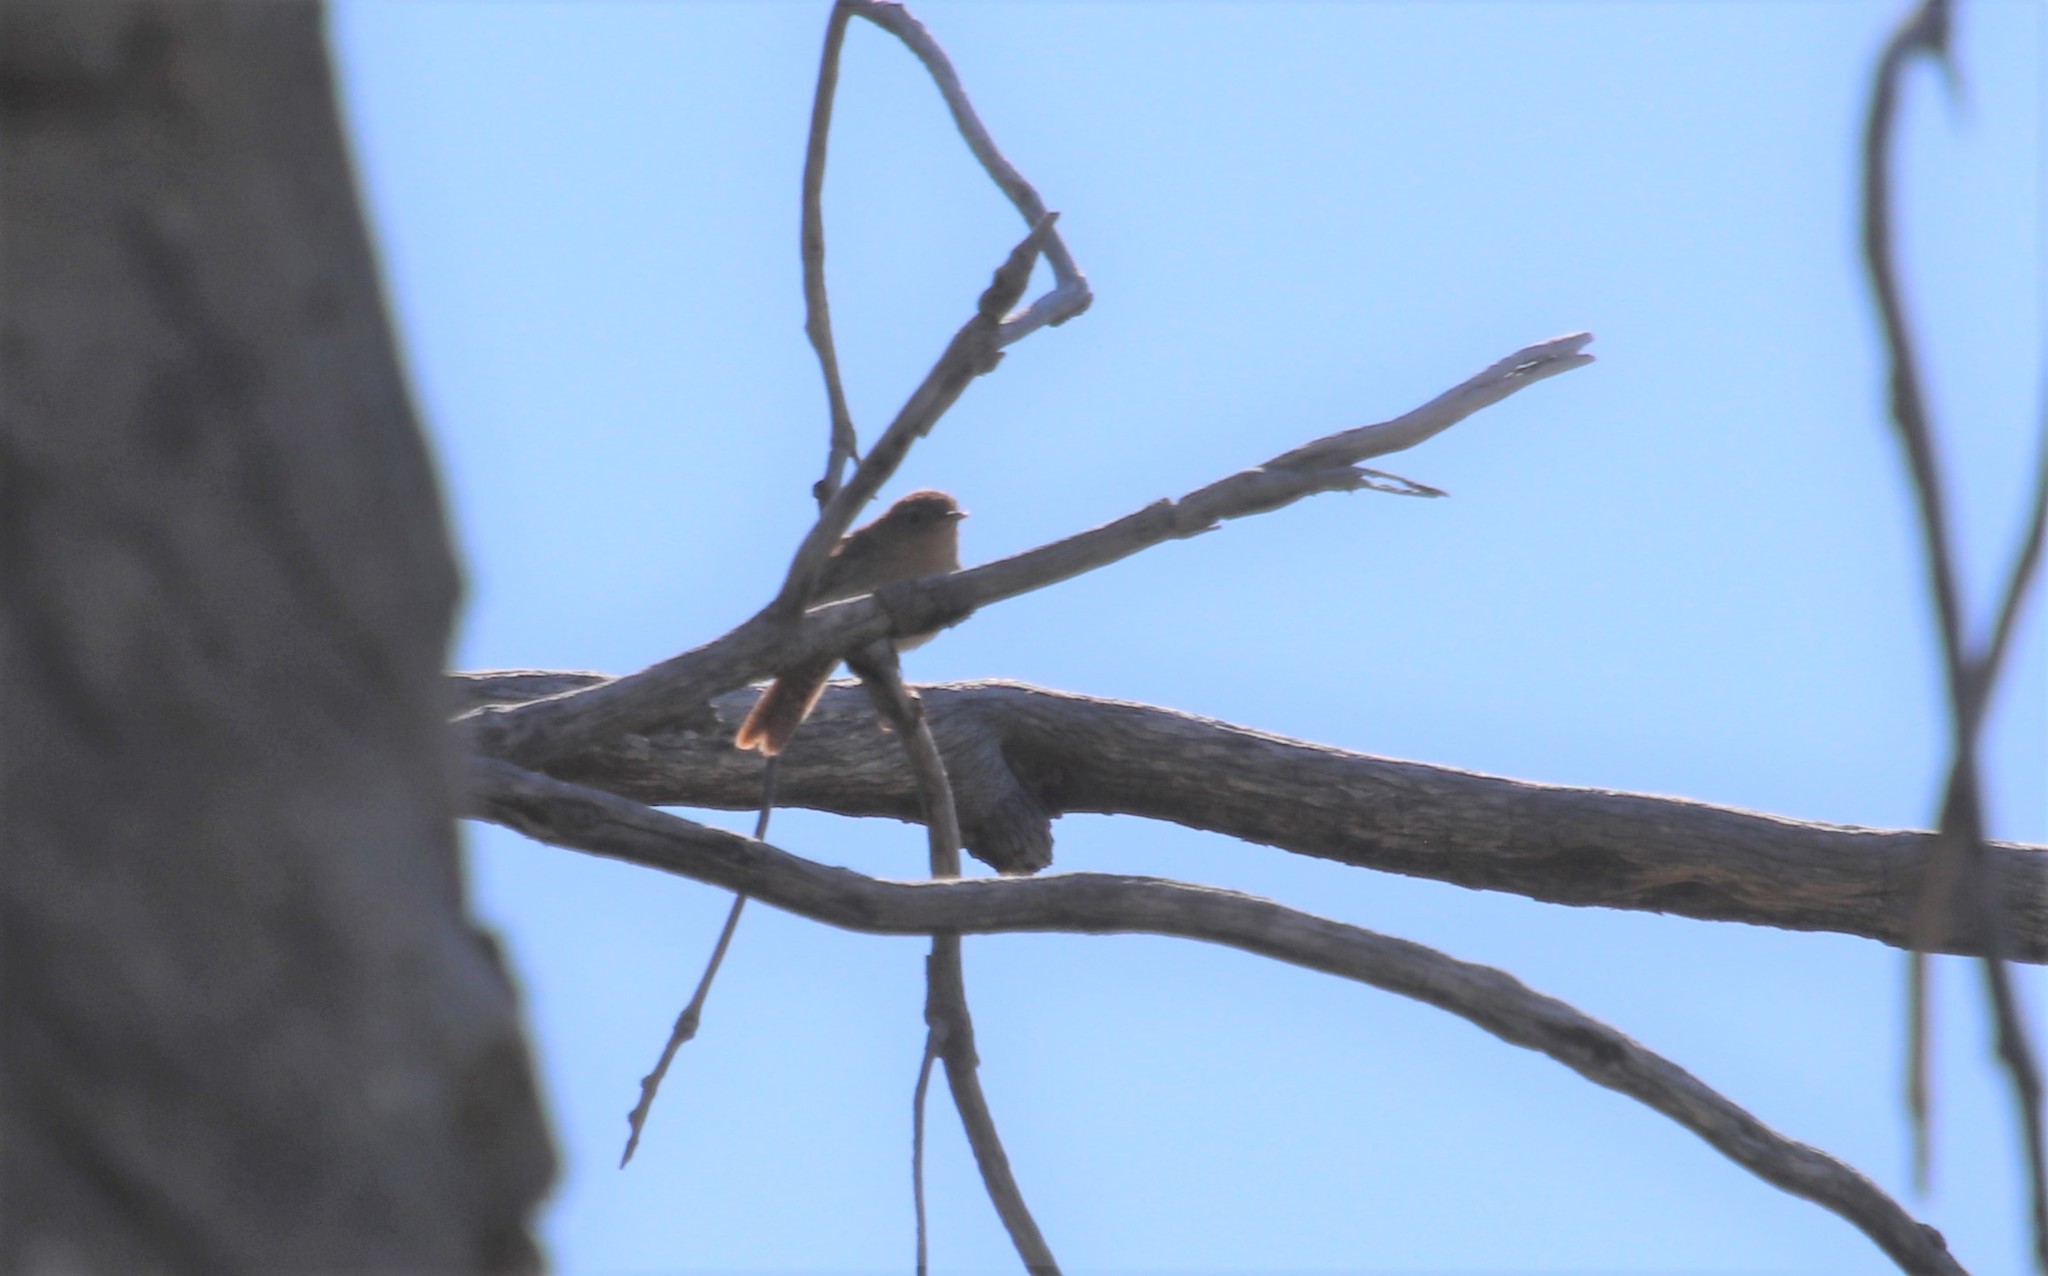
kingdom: Animalia
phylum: Chordata
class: Aves
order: Passeriformes
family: Troglodytidae
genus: Troglodytes
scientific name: Troglodytes aedon
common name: House wren
